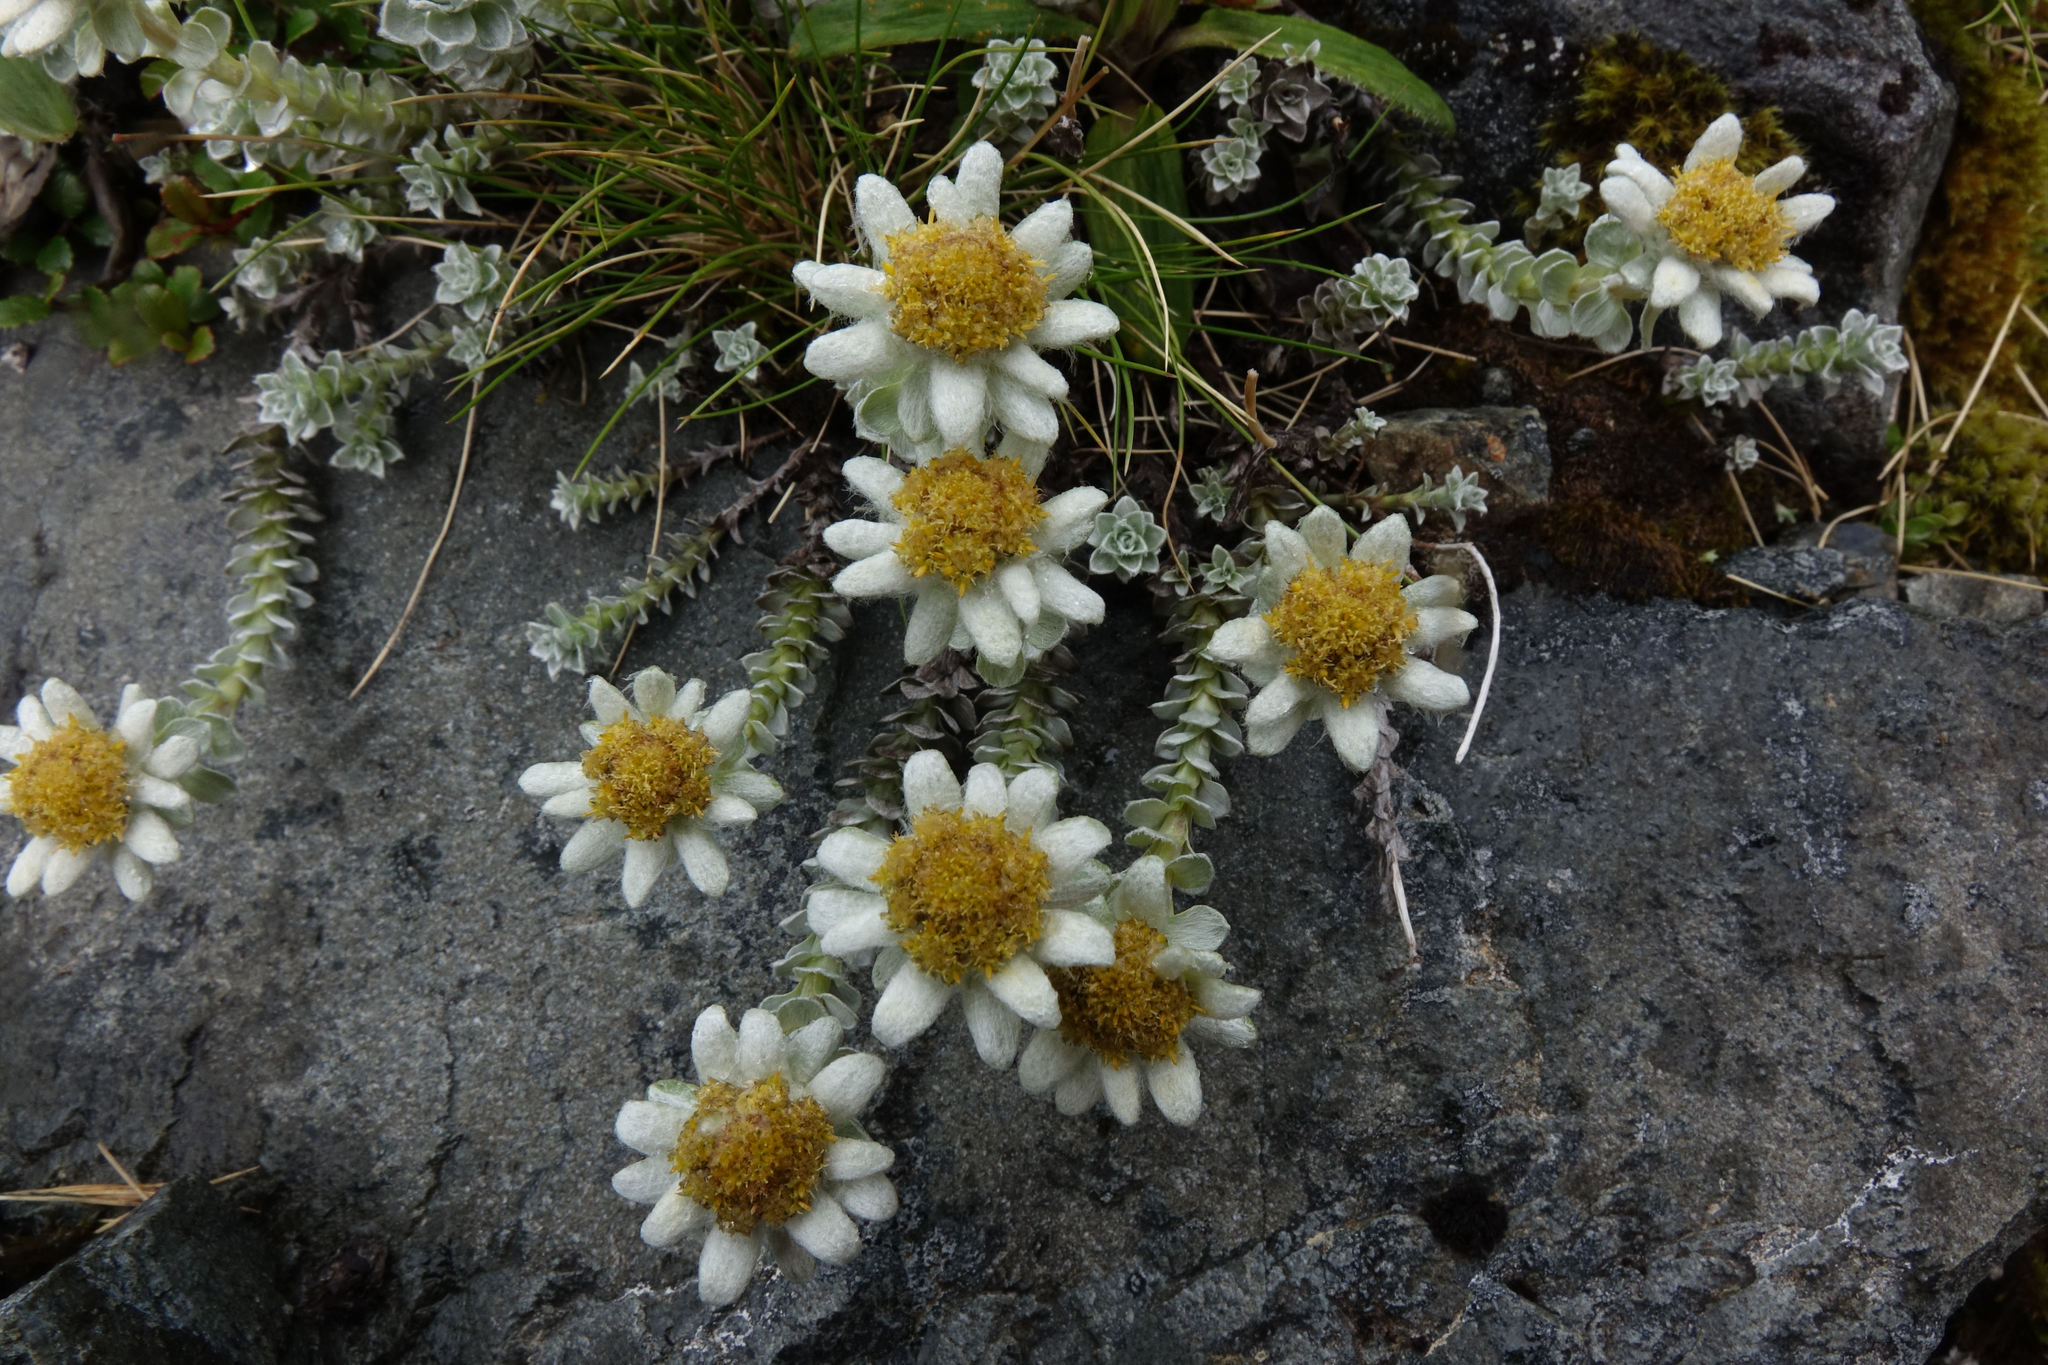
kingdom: Plantae
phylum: Tracheophyta
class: Magnoliopsida
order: Asterales
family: Asteraceae
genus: Leucogenes
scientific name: Leucogenes grandiceps
